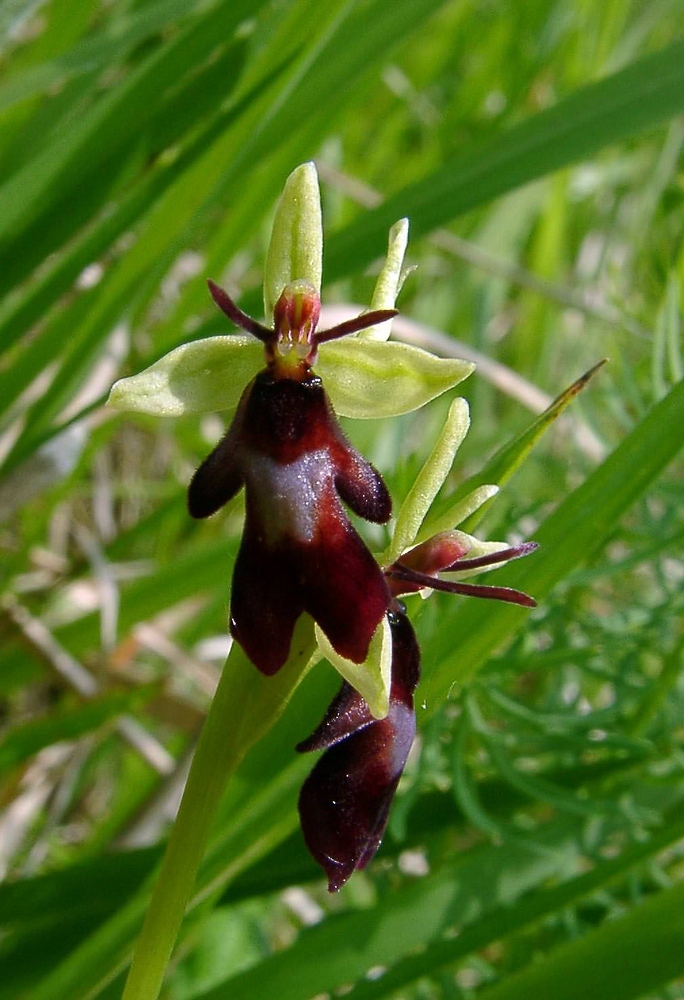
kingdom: Plantae
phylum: Tracheophyta
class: Liliopsida
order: Asparagales
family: Orchidaceae
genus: Ophrys
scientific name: Ophrys insectifera
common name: Fly orchid
